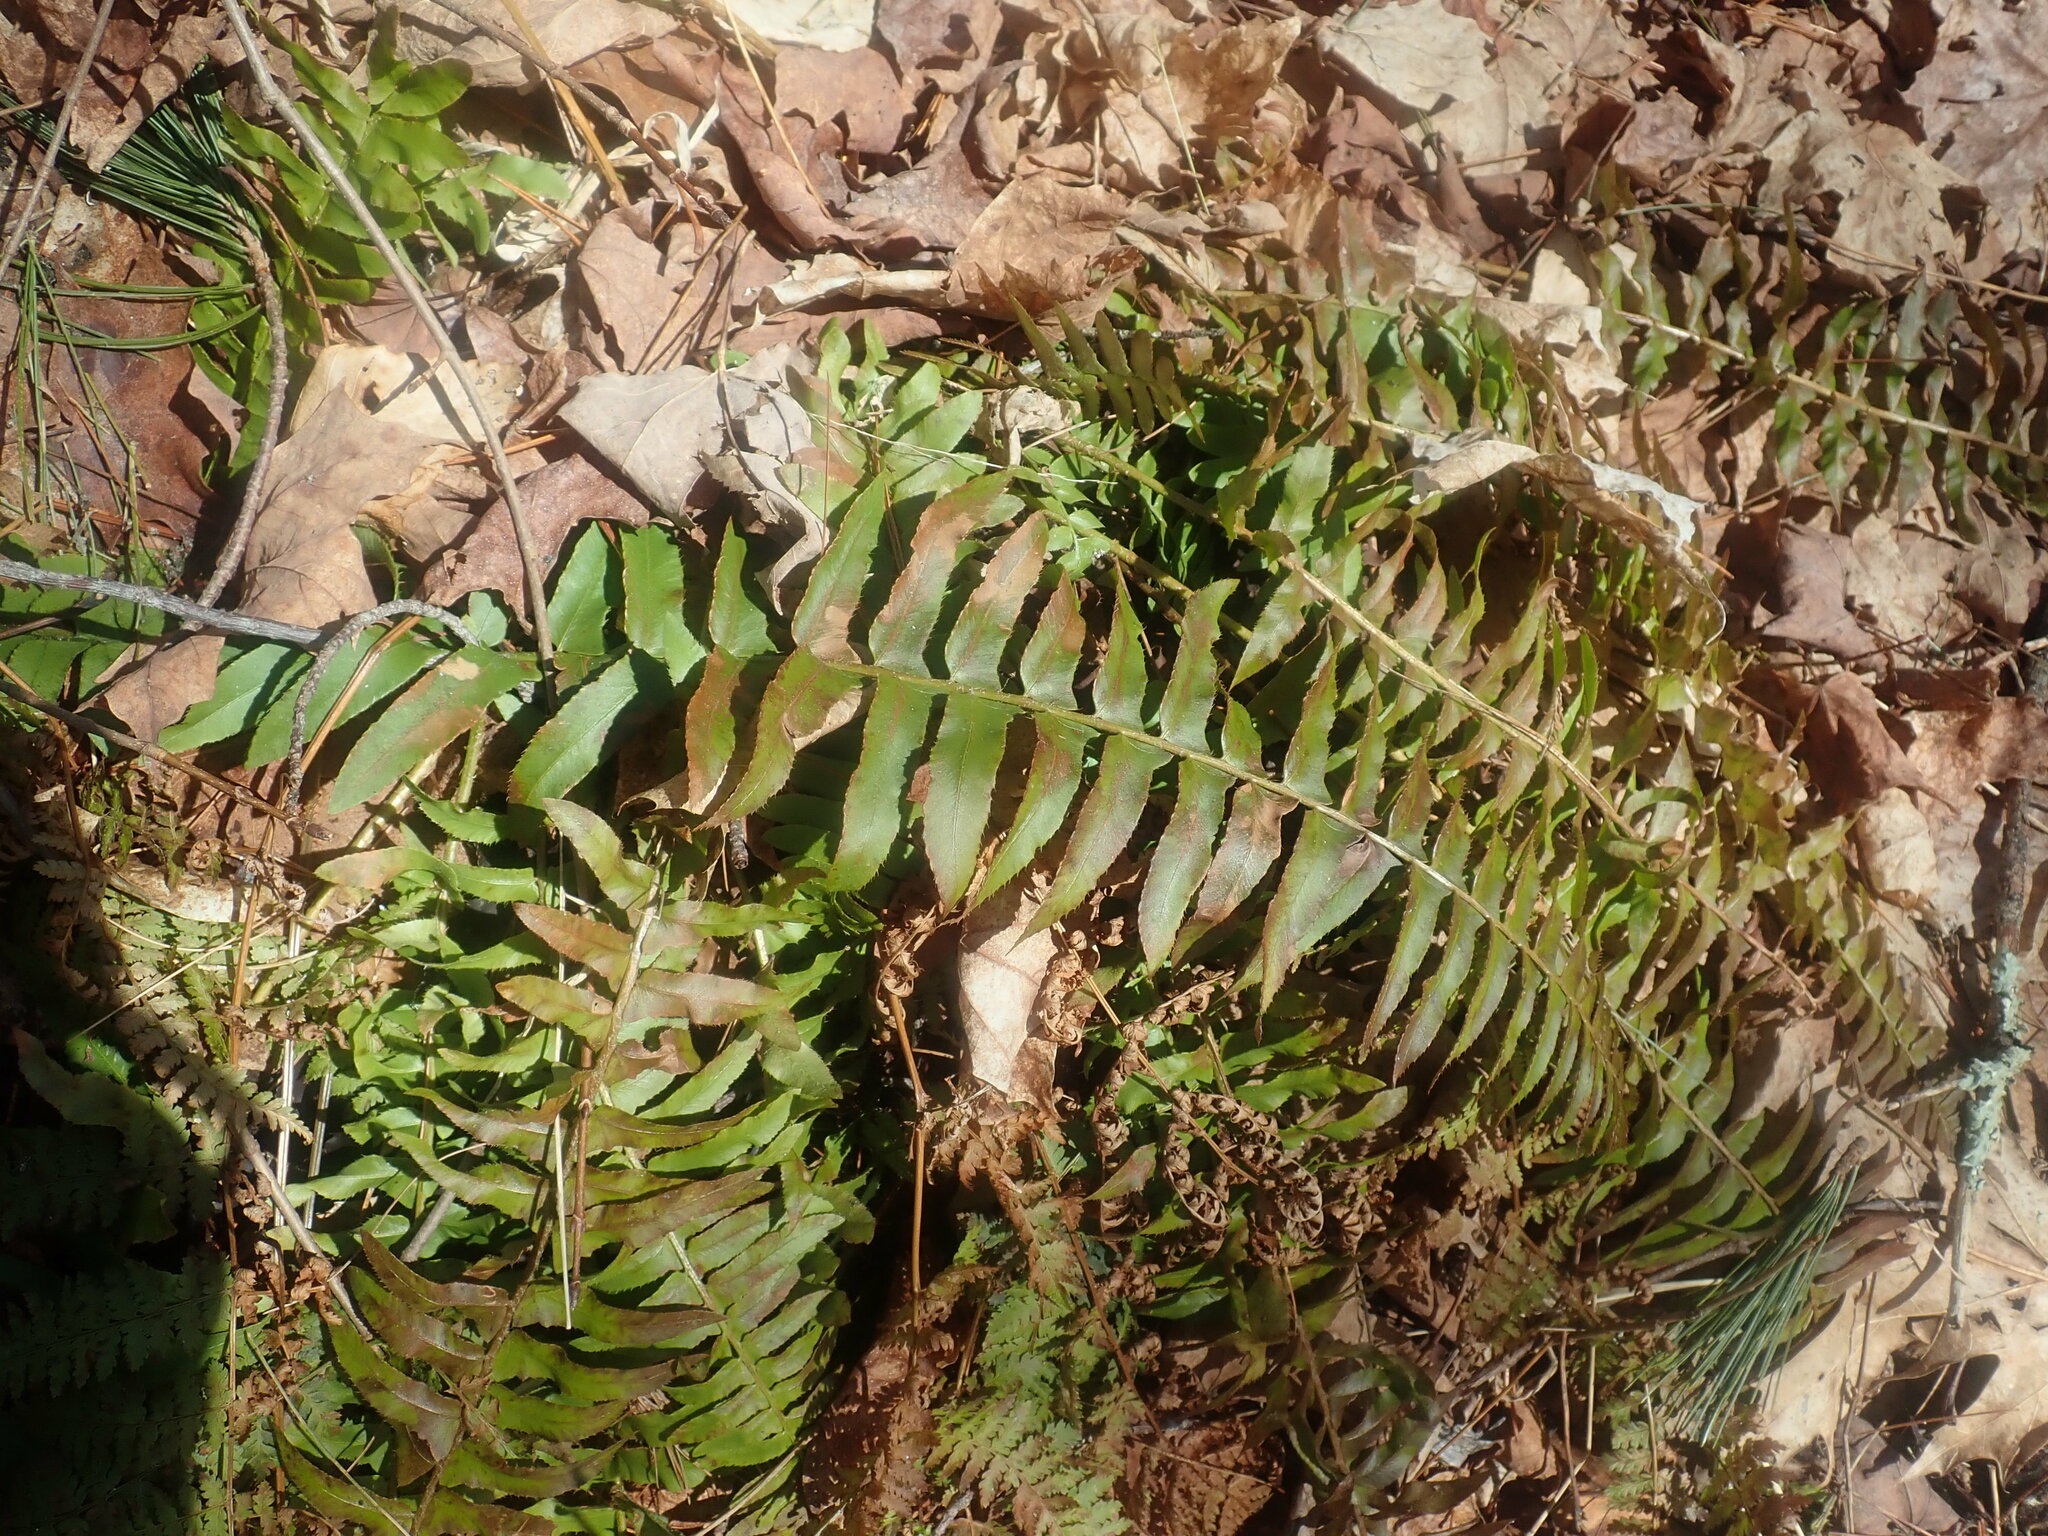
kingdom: Plantae
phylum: Tracheophyta
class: Polypodiopsida
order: Polypodiales
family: Dryopteridaceae
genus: Polystichum
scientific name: Polystichum acrostichoides
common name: Christmas fern
